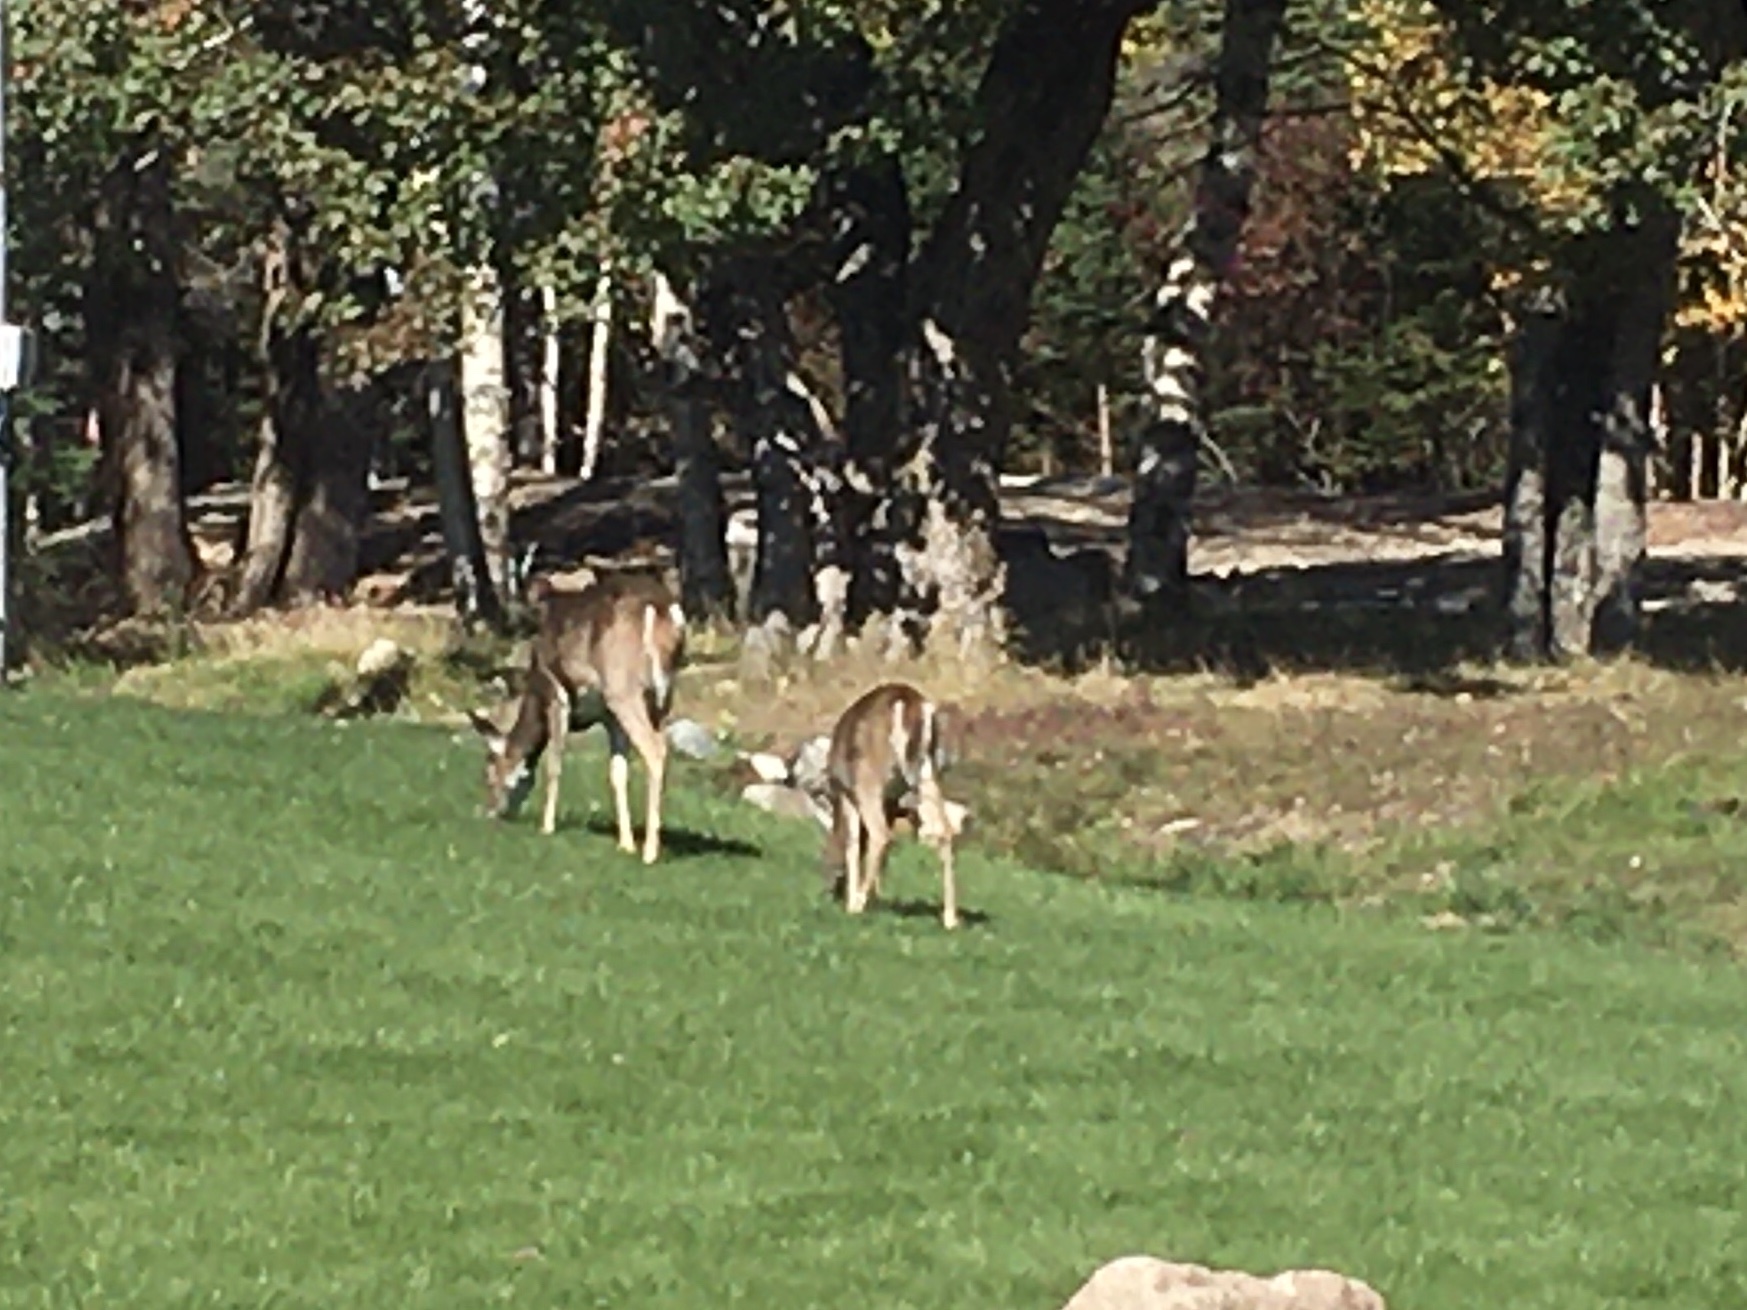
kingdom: Animalia
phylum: Chordata
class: Mammalia
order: Artiodactyla
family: Cervidae
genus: Odocoileus
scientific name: Odocoileus virginianus
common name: White-tailed deer
